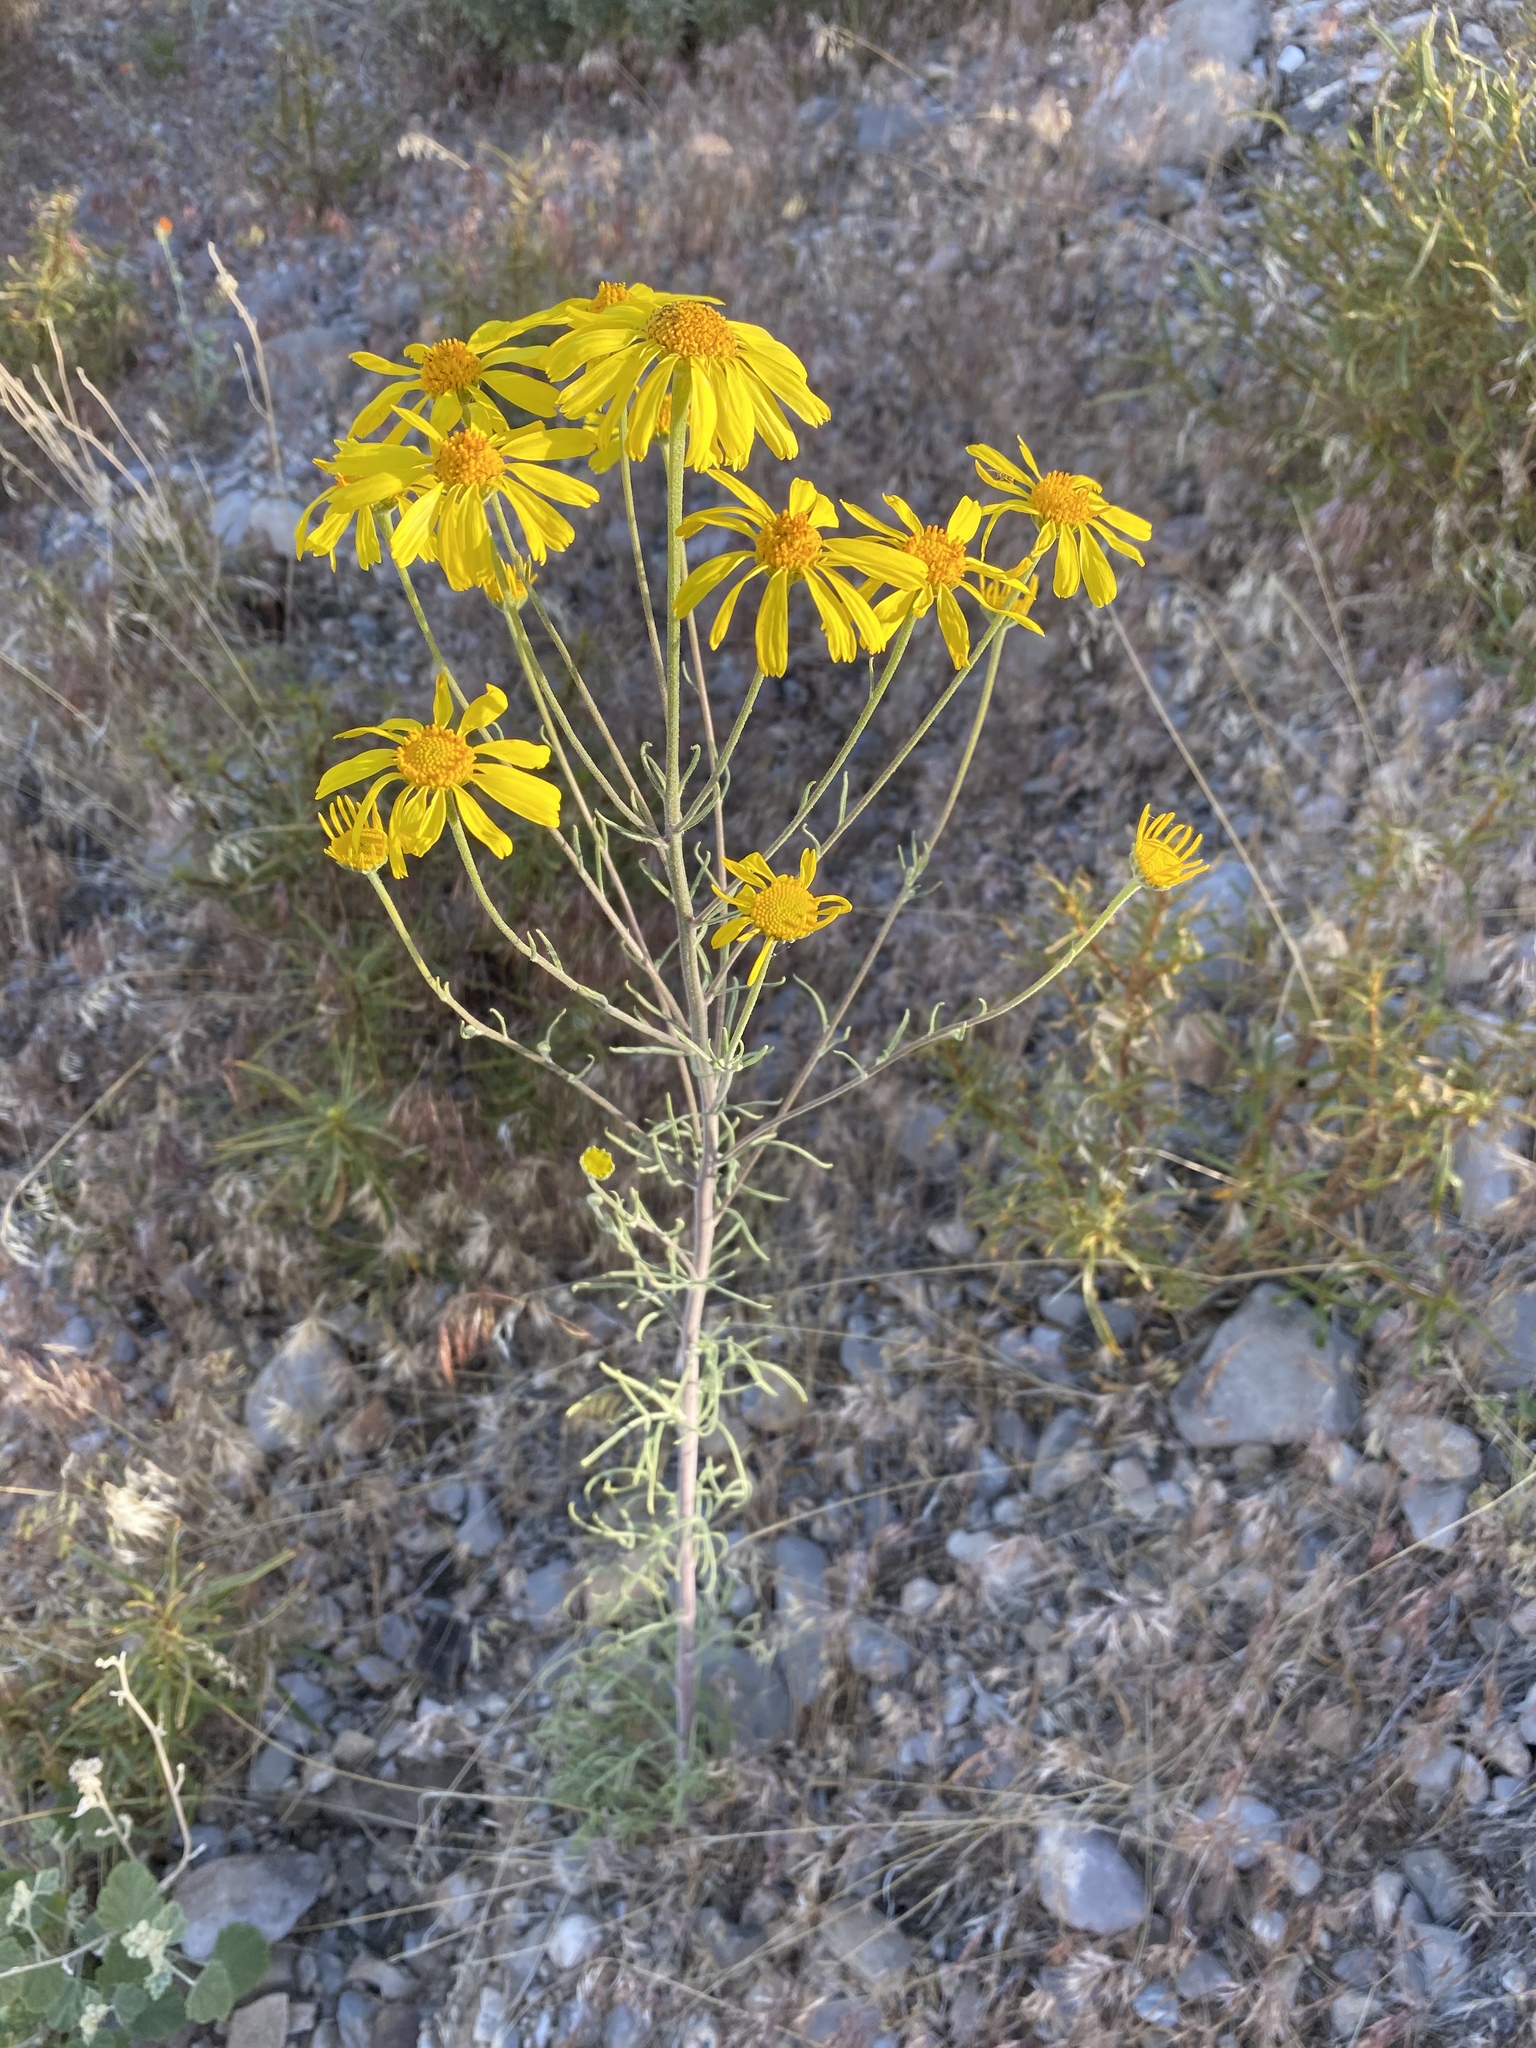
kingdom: Plantae
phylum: Tracheophyta
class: Magnoliopsida
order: Asterales
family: Asteraceae
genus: Hymenoxys
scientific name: Hymenoxys cooperi
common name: Cooper's bitterweed
